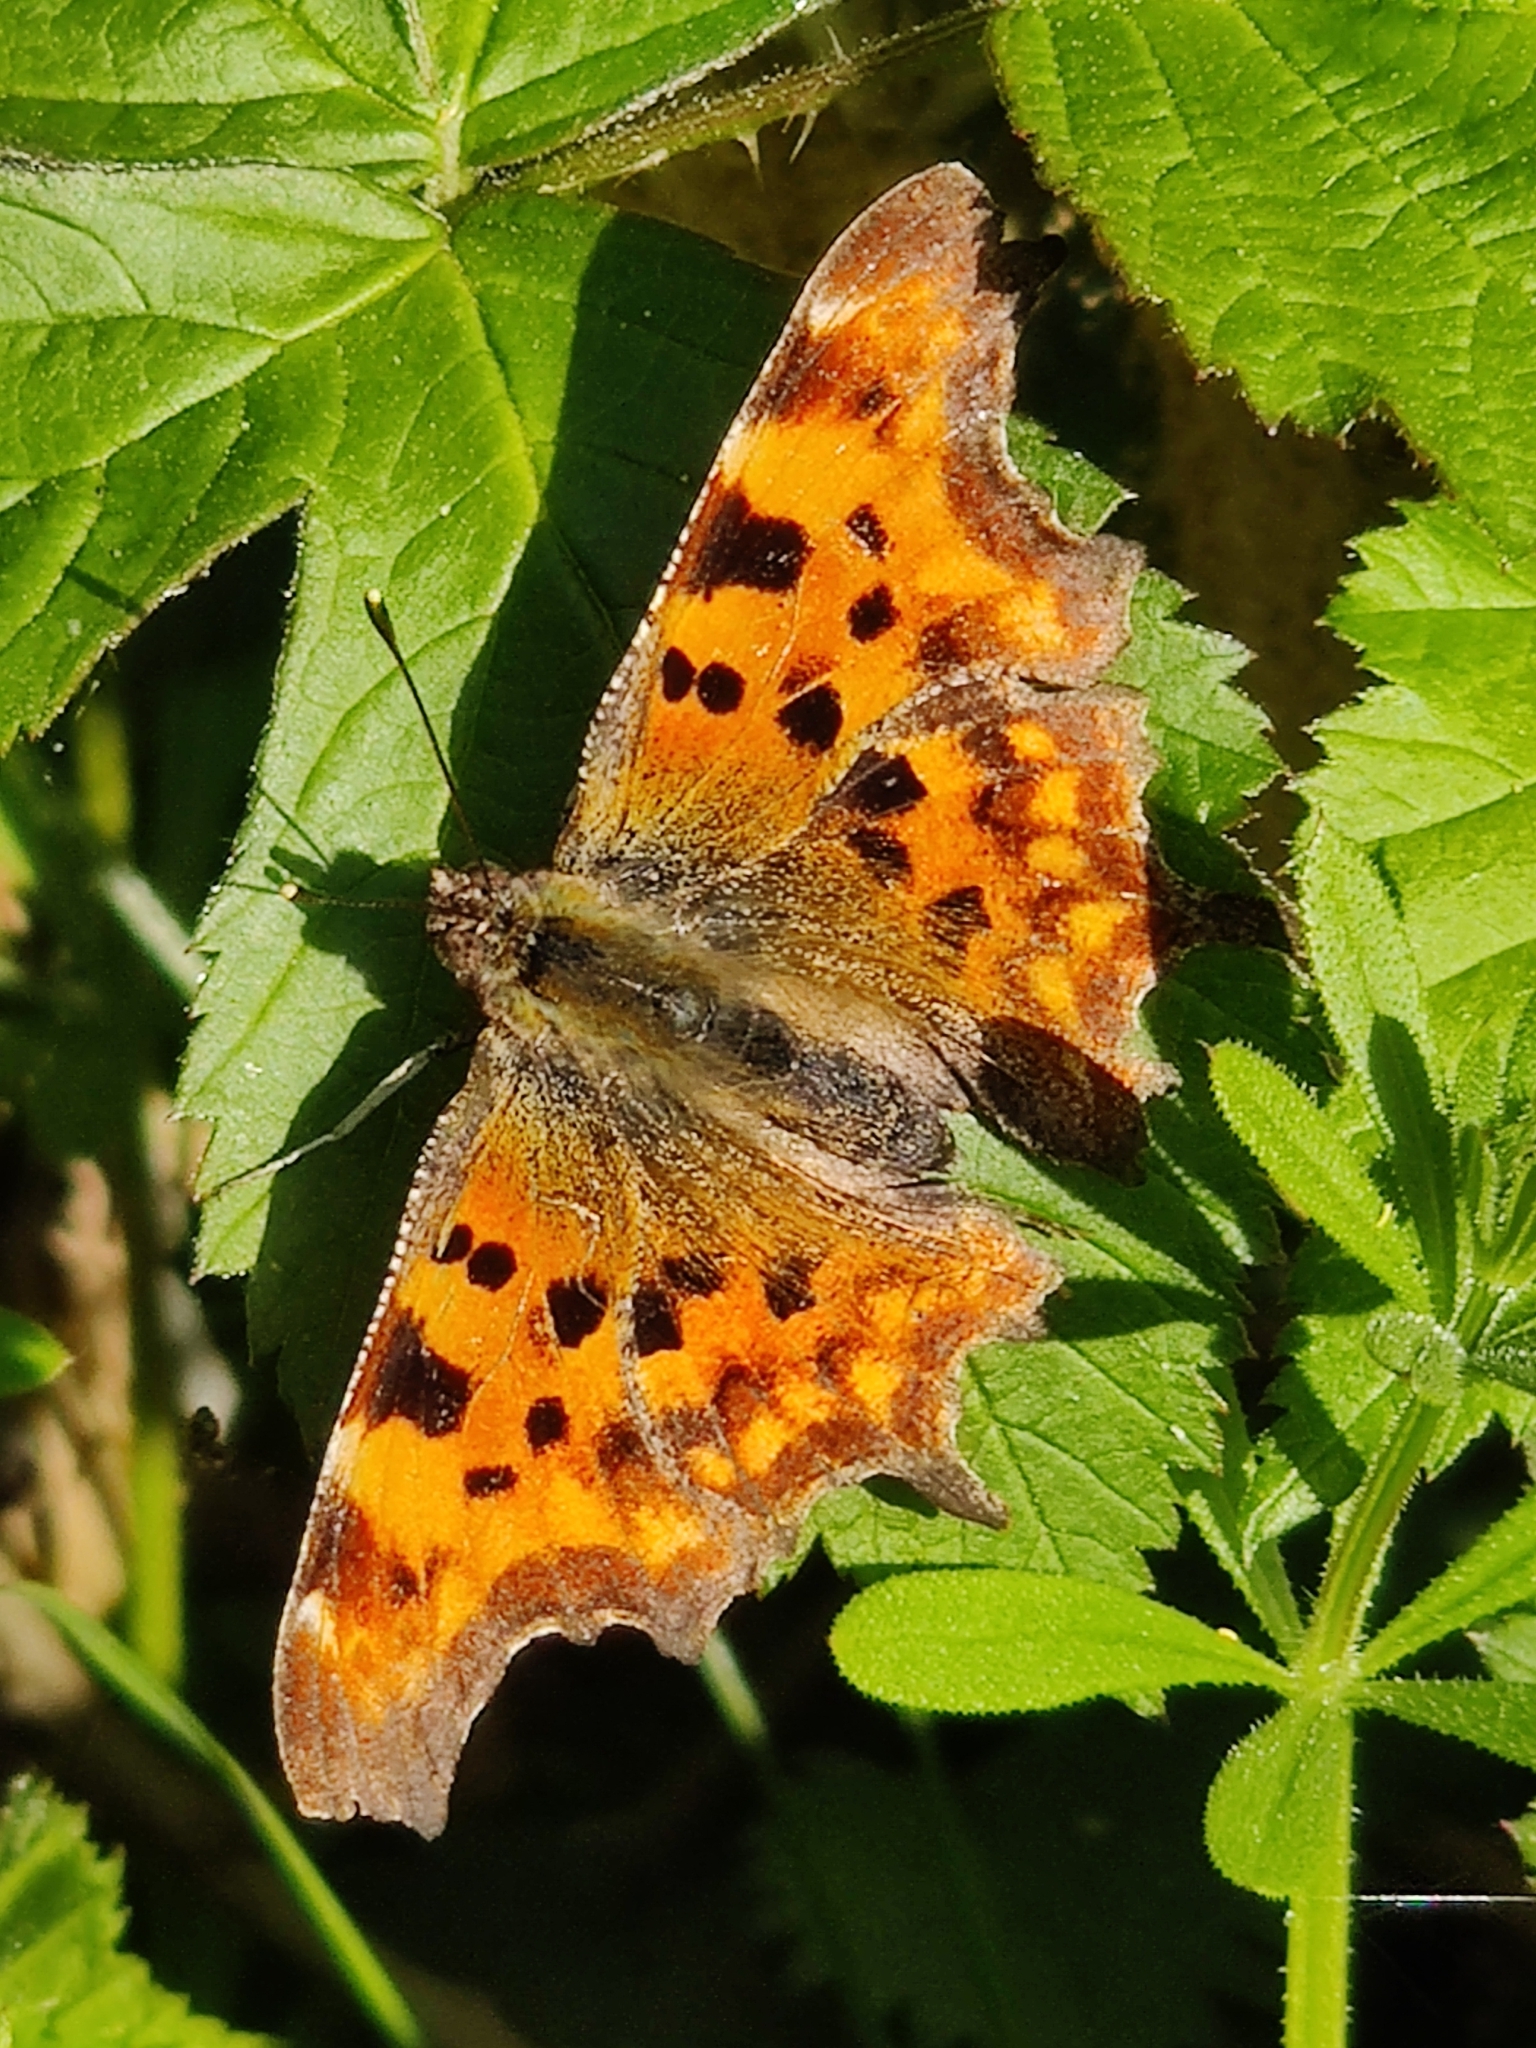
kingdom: Animalia
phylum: Arthropoda
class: Insecta
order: Lepidoptera
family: Nymphalidae
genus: Polygonia
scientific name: Polygonia c-album
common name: Comma
